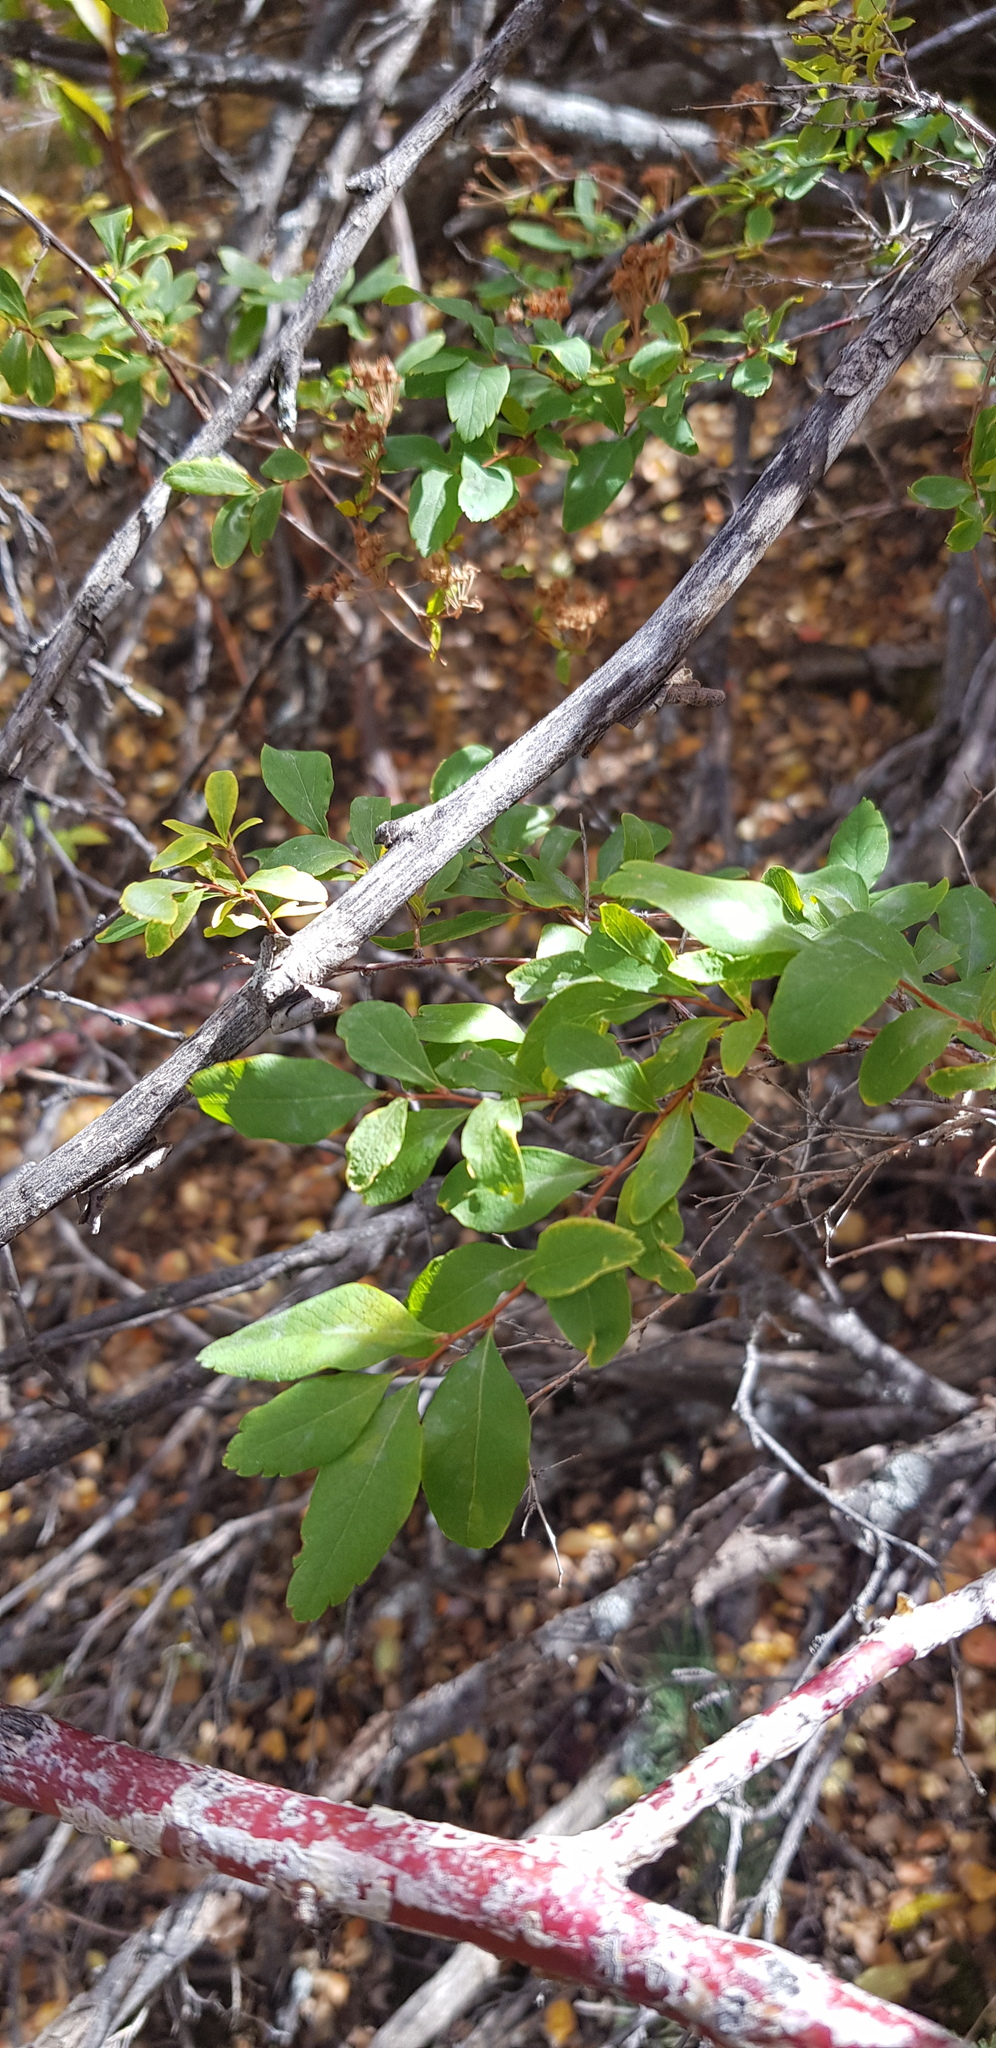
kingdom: Plantae
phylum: Tracheophyta
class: Magnoliopsida
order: Rosales
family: Rosaceae
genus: Spiraea
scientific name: Spiraea media
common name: Russian spiraea
